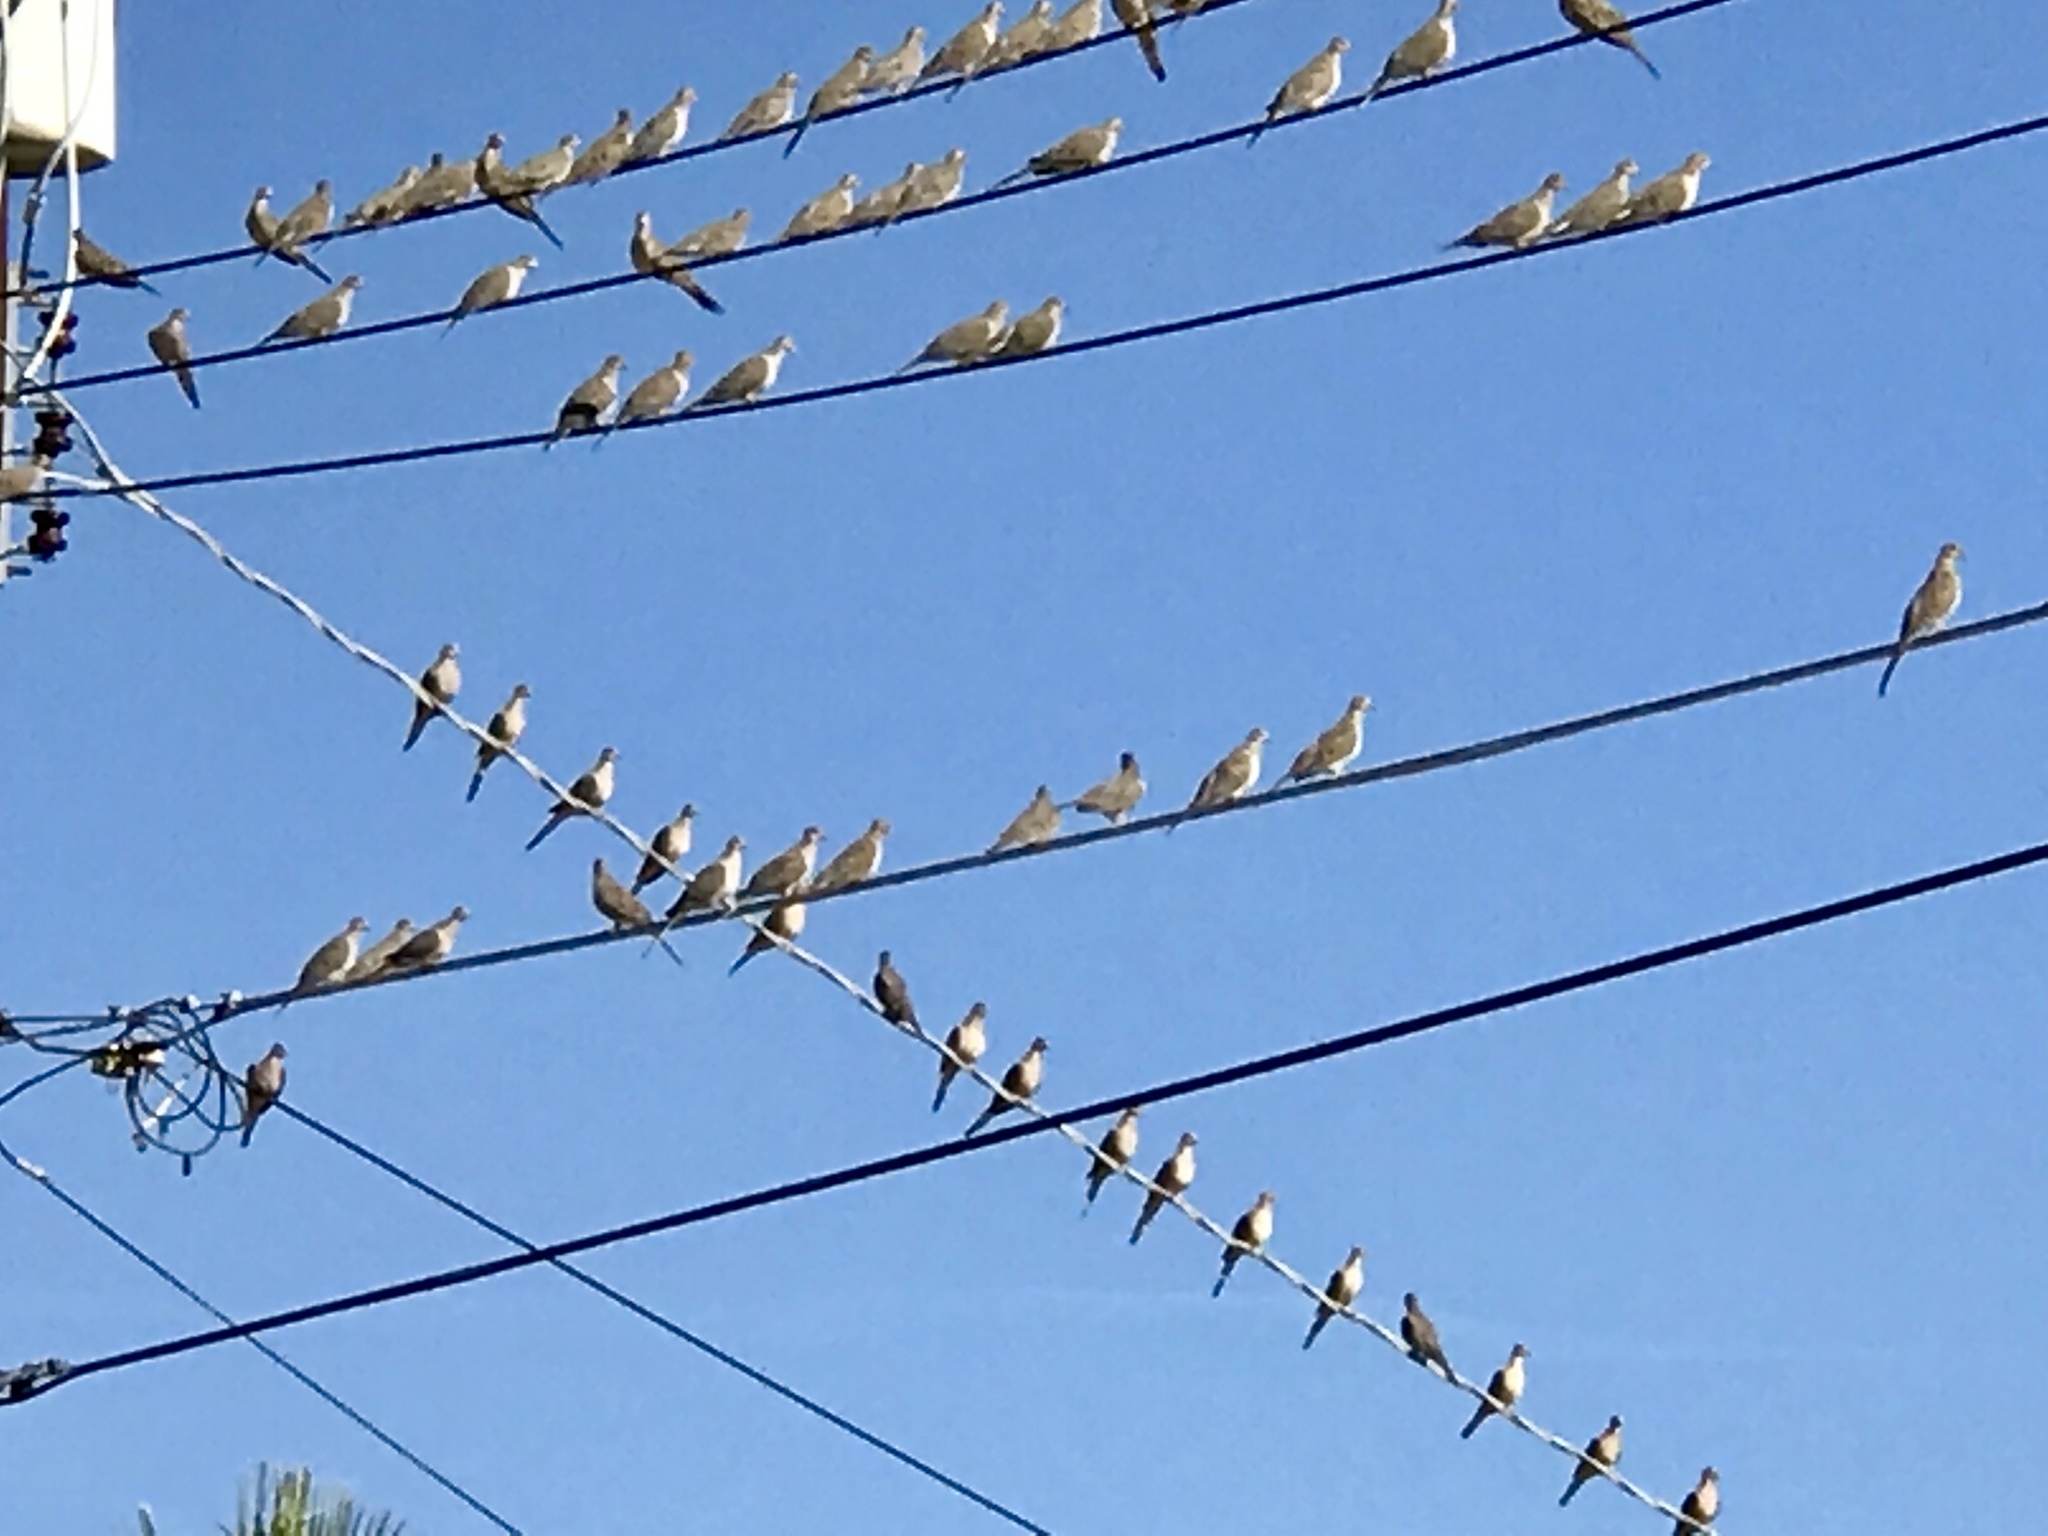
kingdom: Animalia
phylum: Chordata
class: Aves
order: Columbiformes
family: Columbidae
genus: Zenaida
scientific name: Zenaida macroura
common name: Mourning dove
